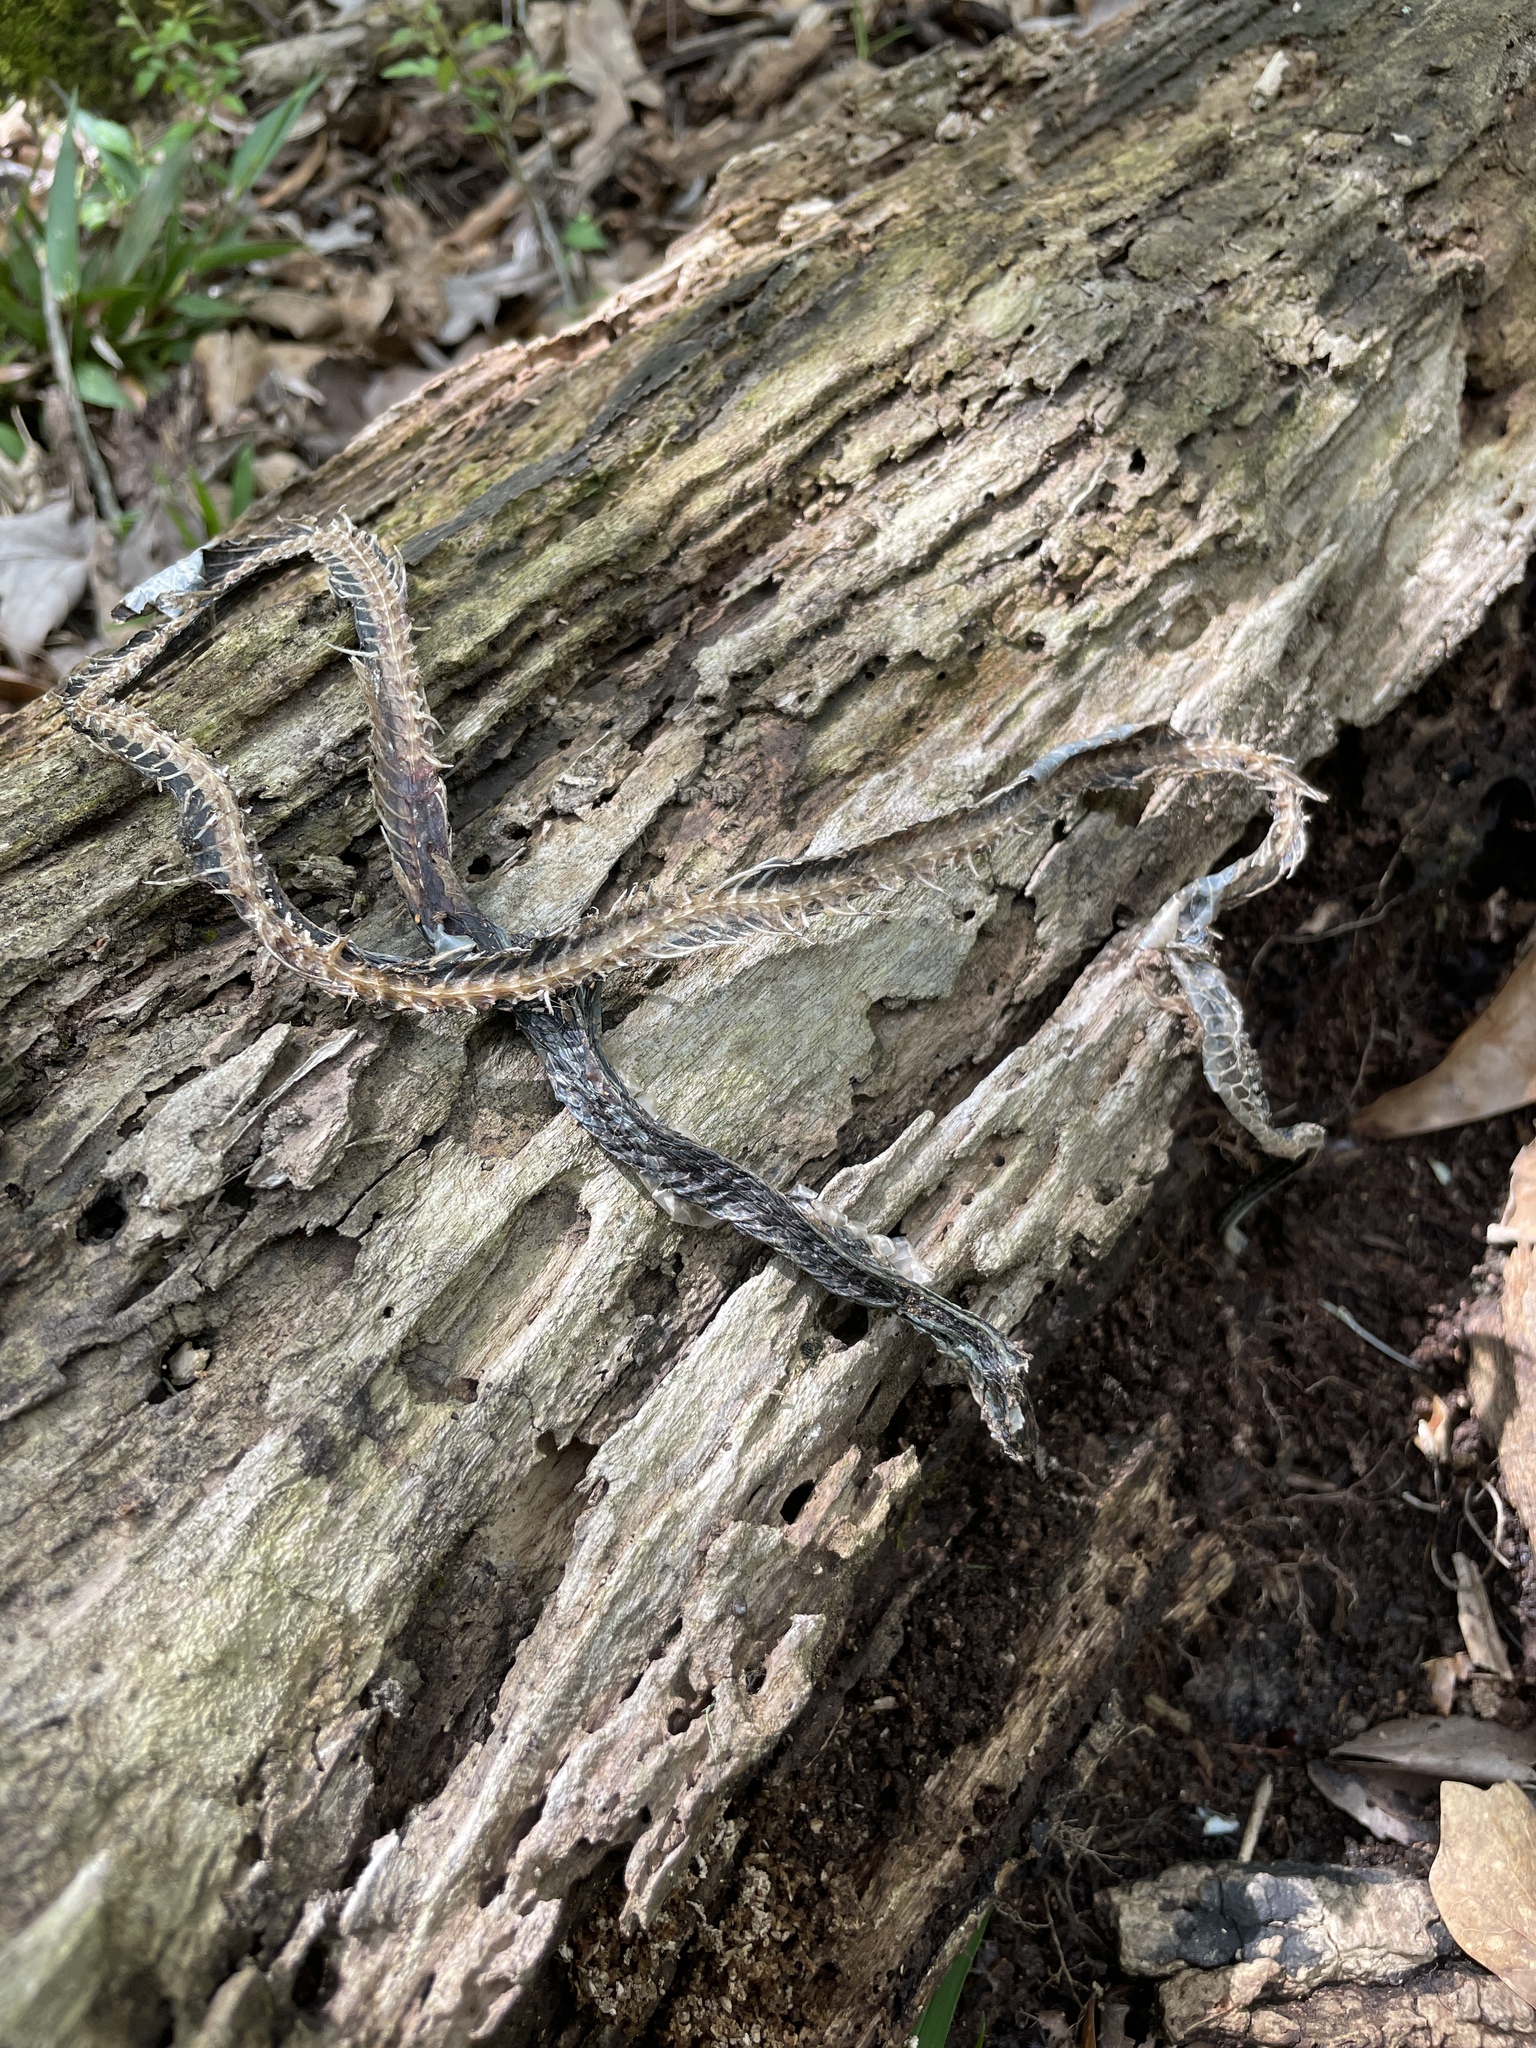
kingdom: Animalia
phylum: Chordata
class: Squamata
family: Colubridae
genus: Thamnophis
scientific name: Thamnophis proximus
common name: Western ribbon snake
